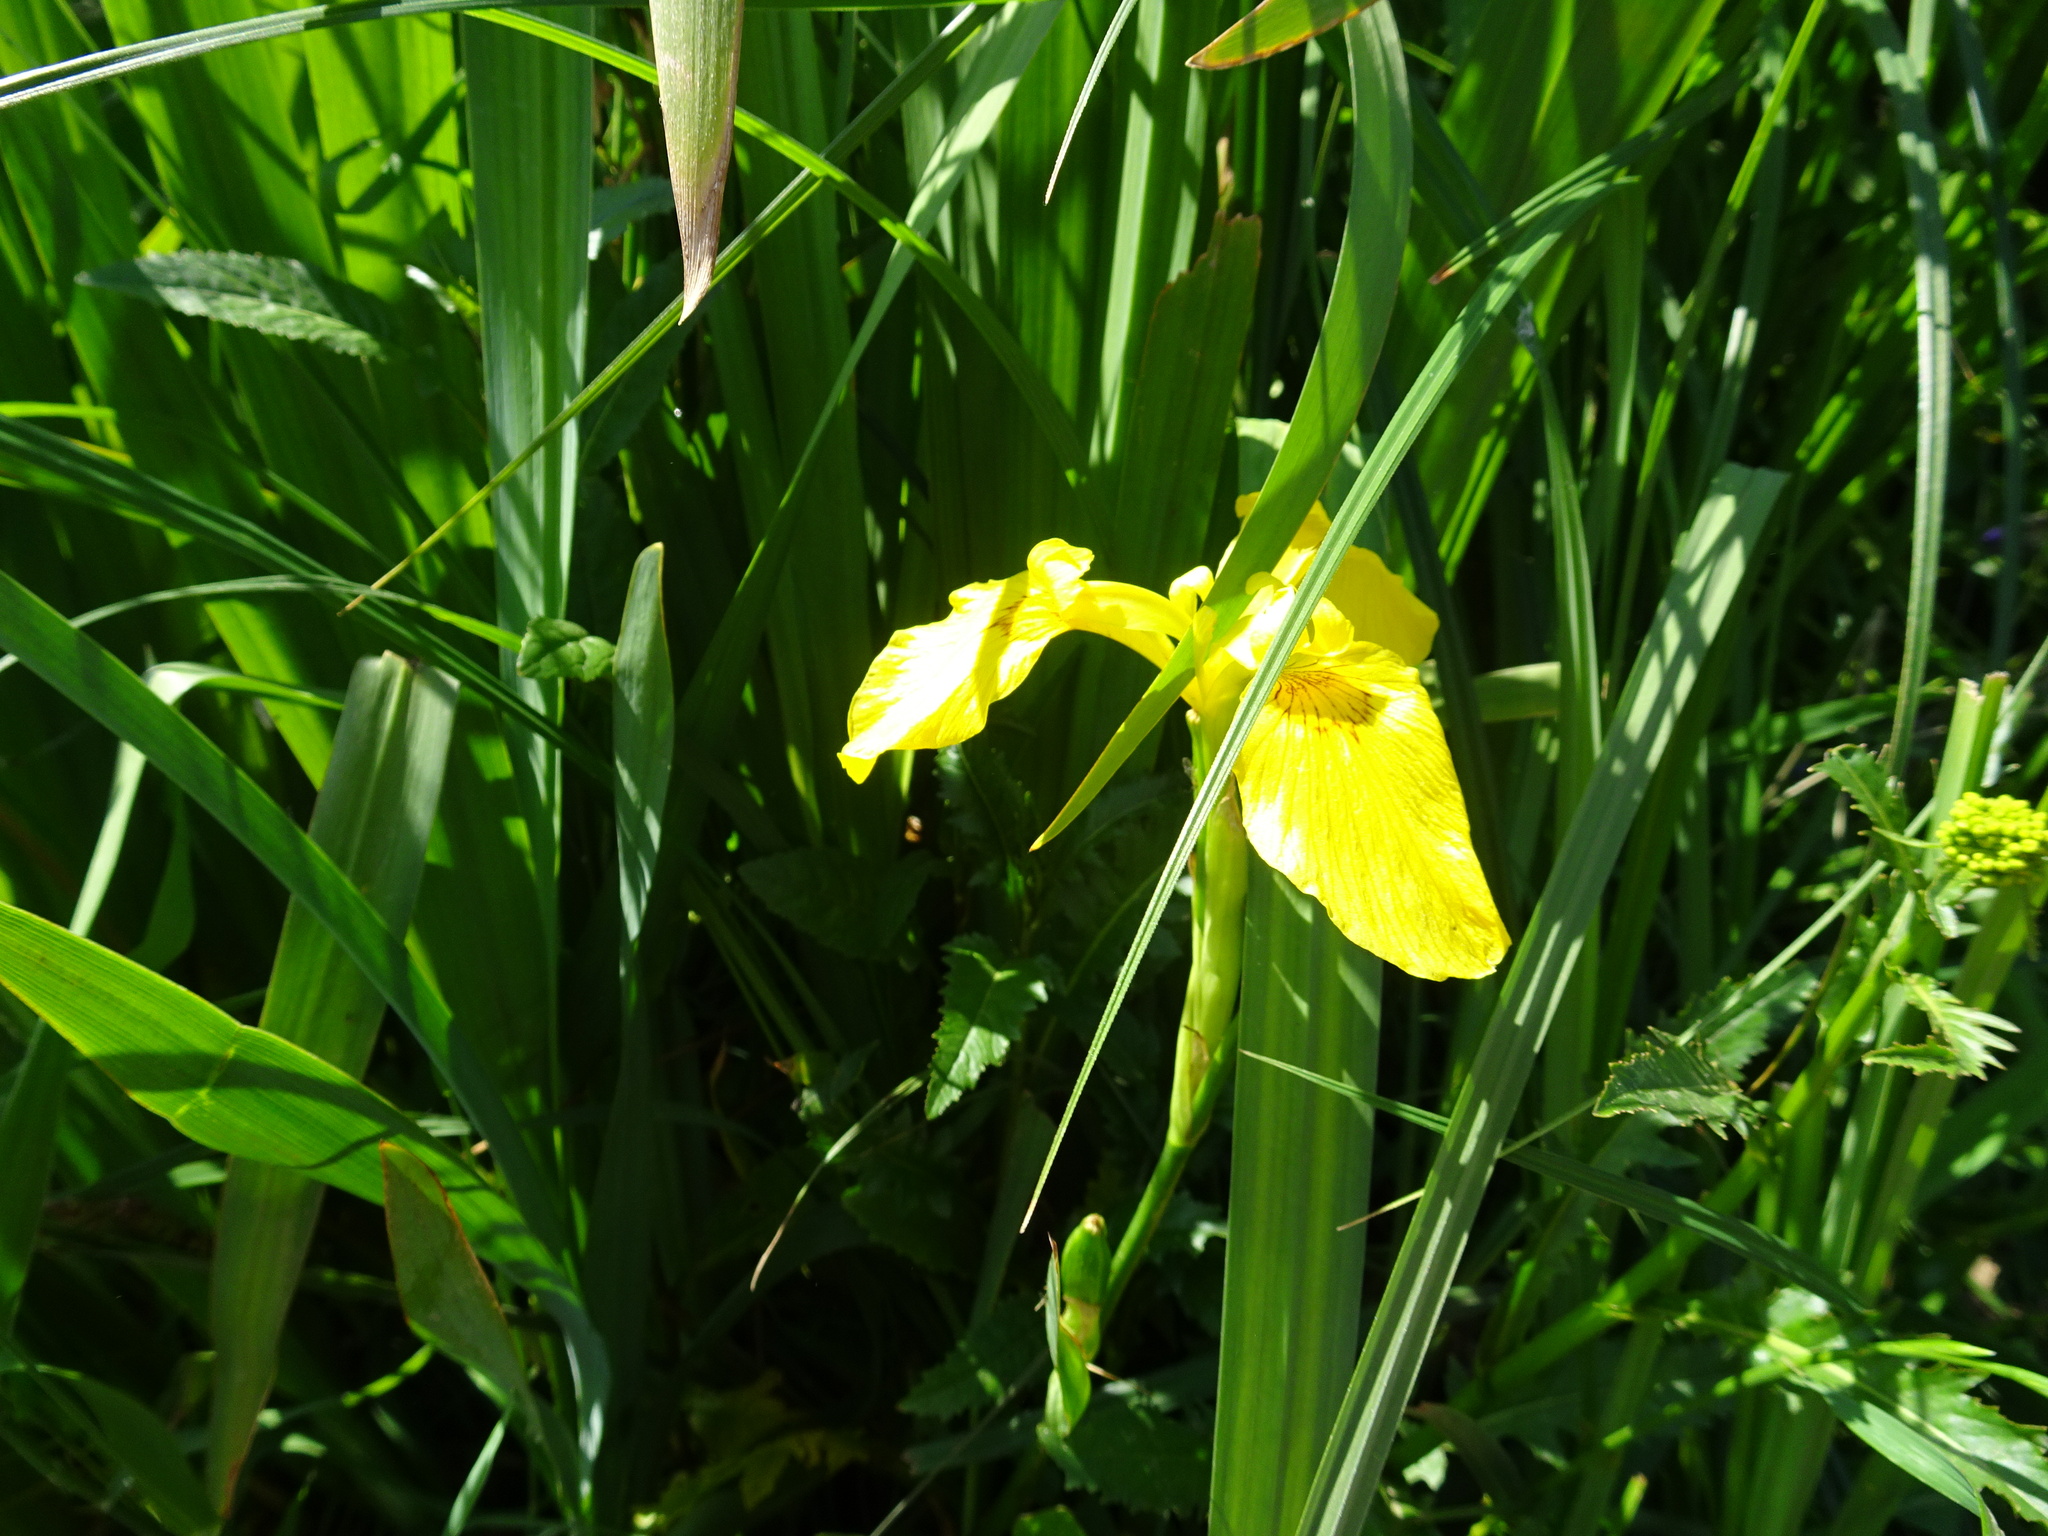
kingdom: Plantae
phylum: Tracheophyta
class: Liliopsida
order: Asparagales
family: Iridaceae
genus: Iris
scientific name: Iris pseudacorus
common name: Yellow flag
